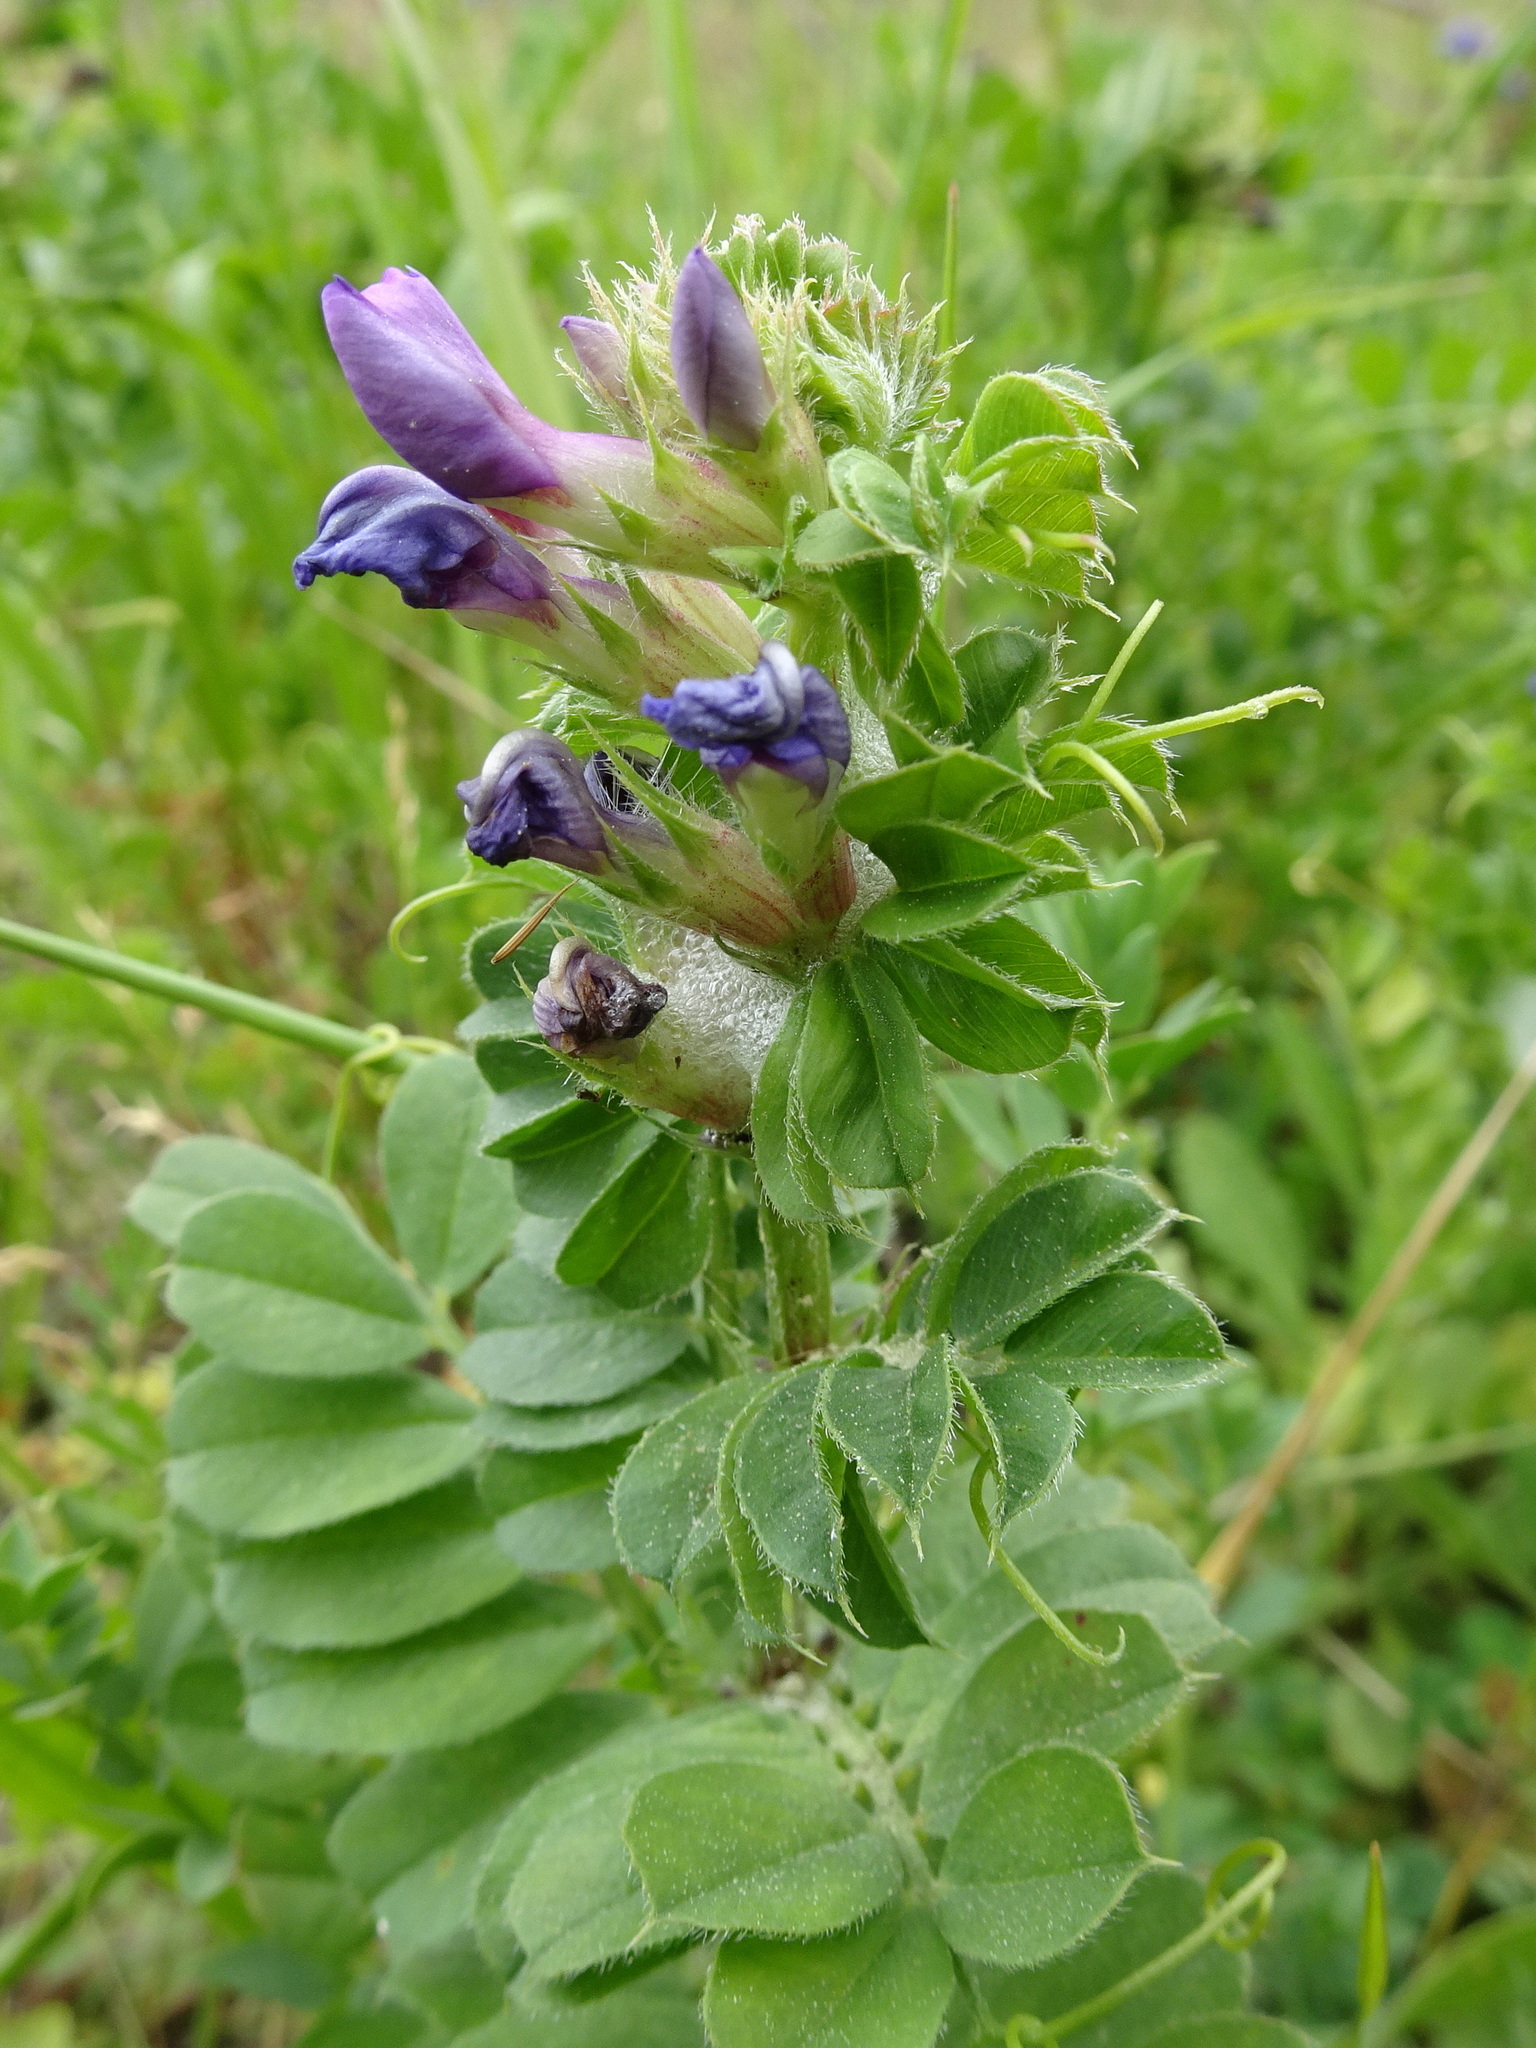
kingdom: Plantae
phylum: Tracheophyta
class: Magnoliopsida
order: Fabales
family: Fabaceae
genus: Vicia
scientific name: Vicia sativa
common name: Garden vetch
